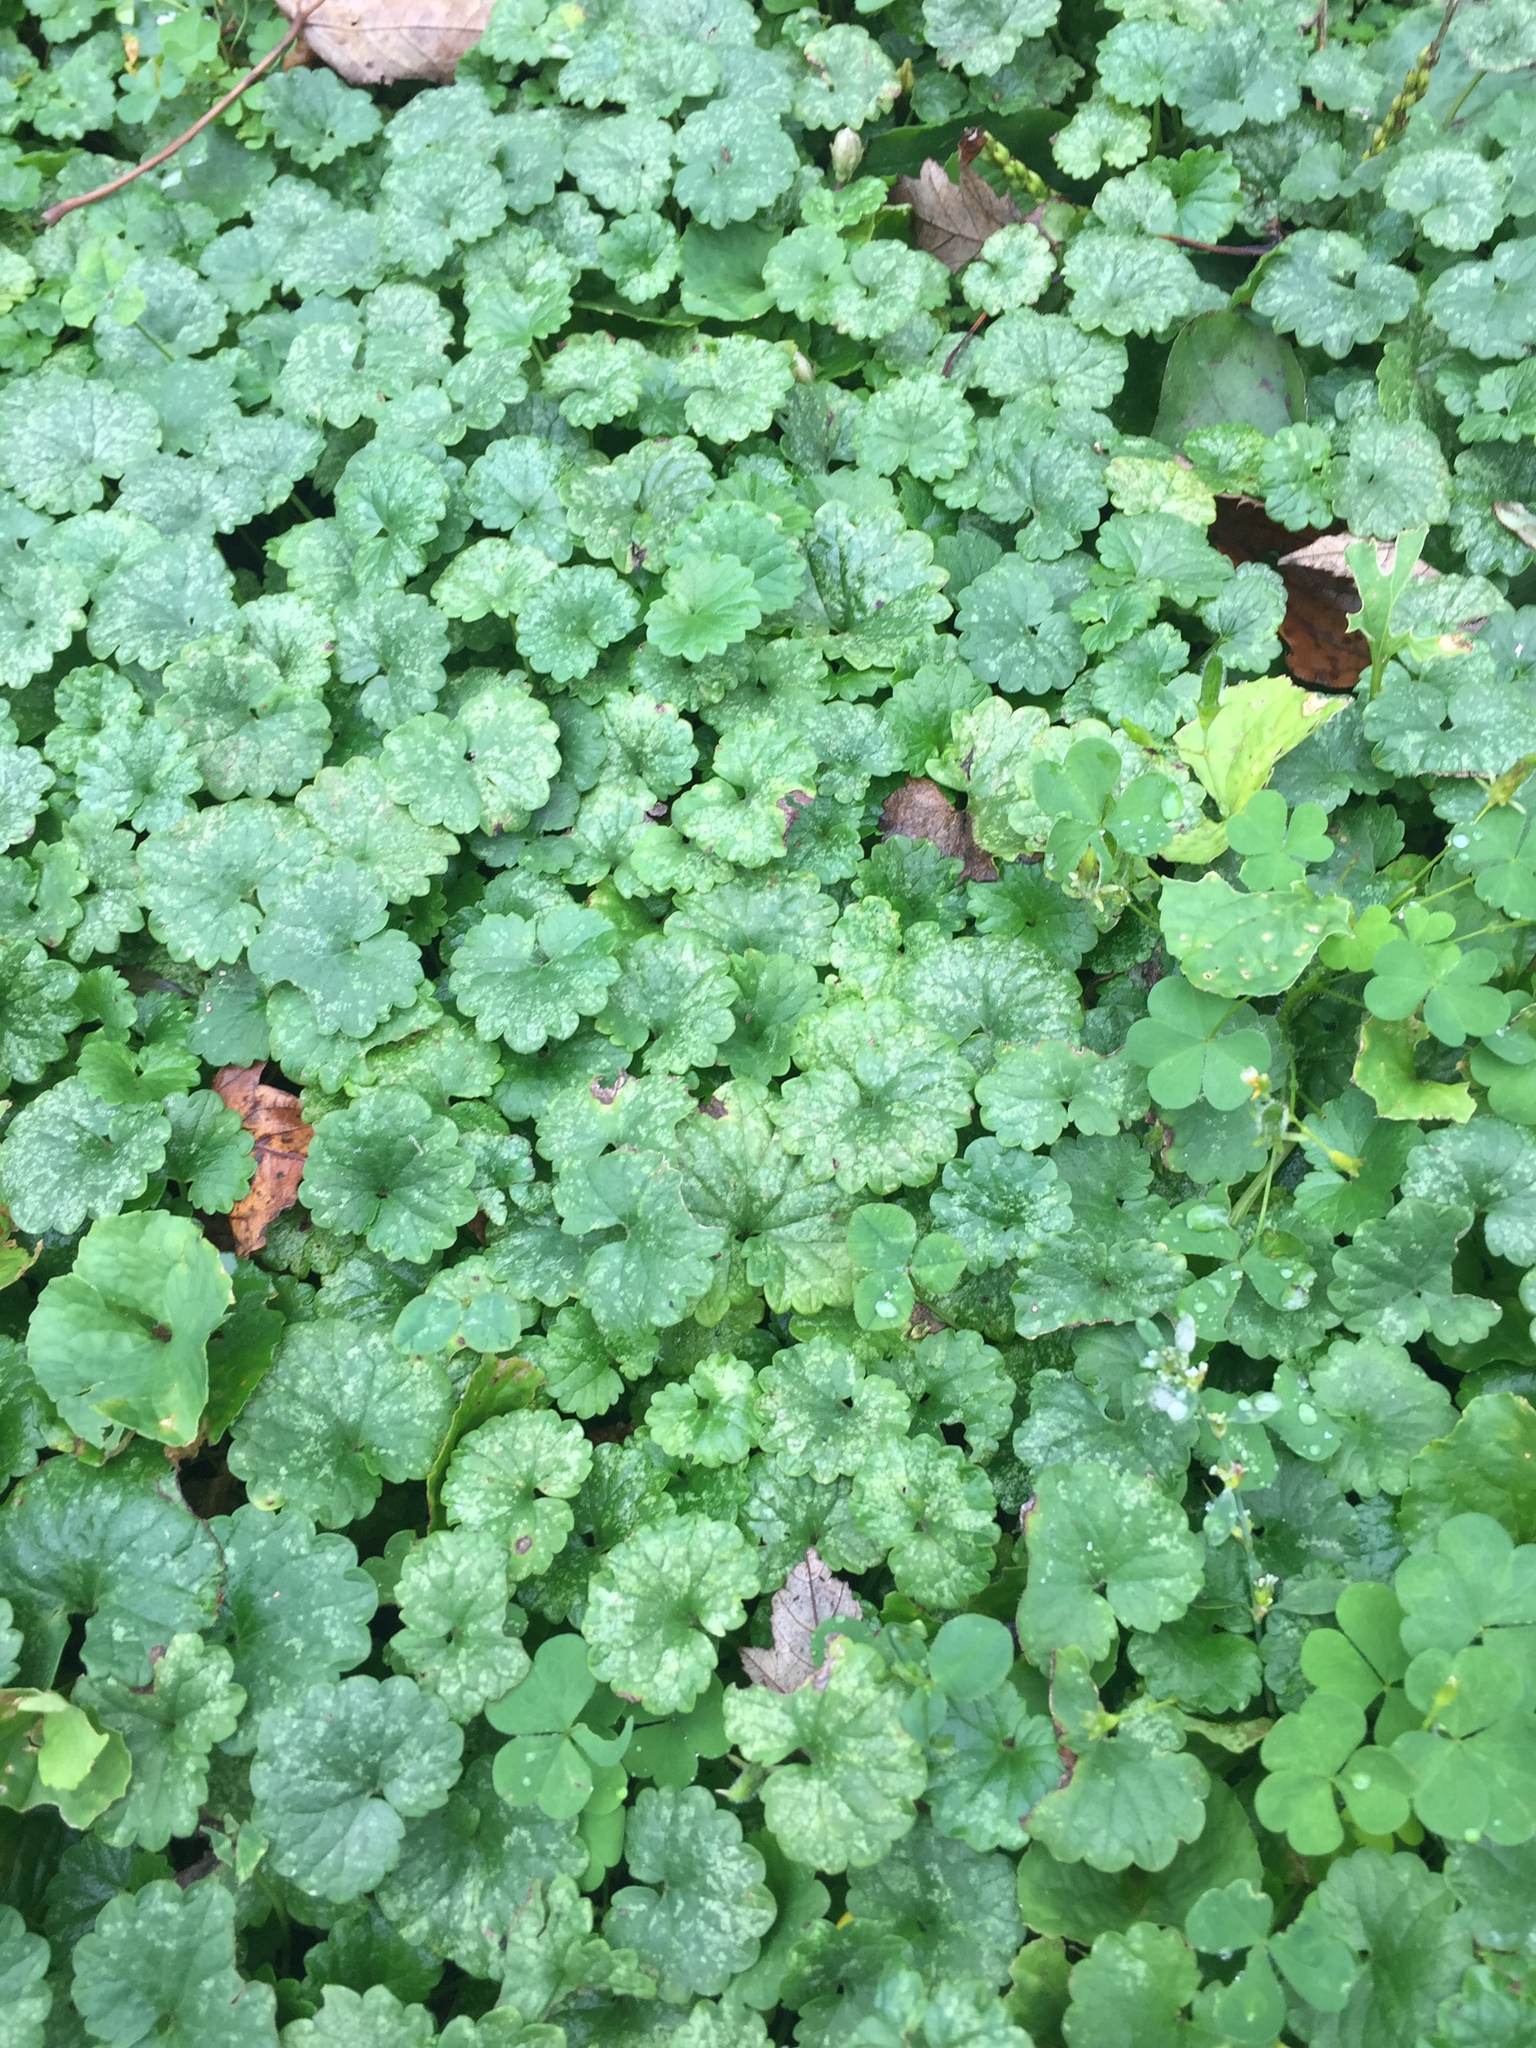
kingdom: Plantae
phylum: Tracheophyta
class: Magnoliopsida
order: Lamiales
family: Lamiaceae
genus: Glechoma
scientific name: Glechoma hederacea
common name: Ground ivy
